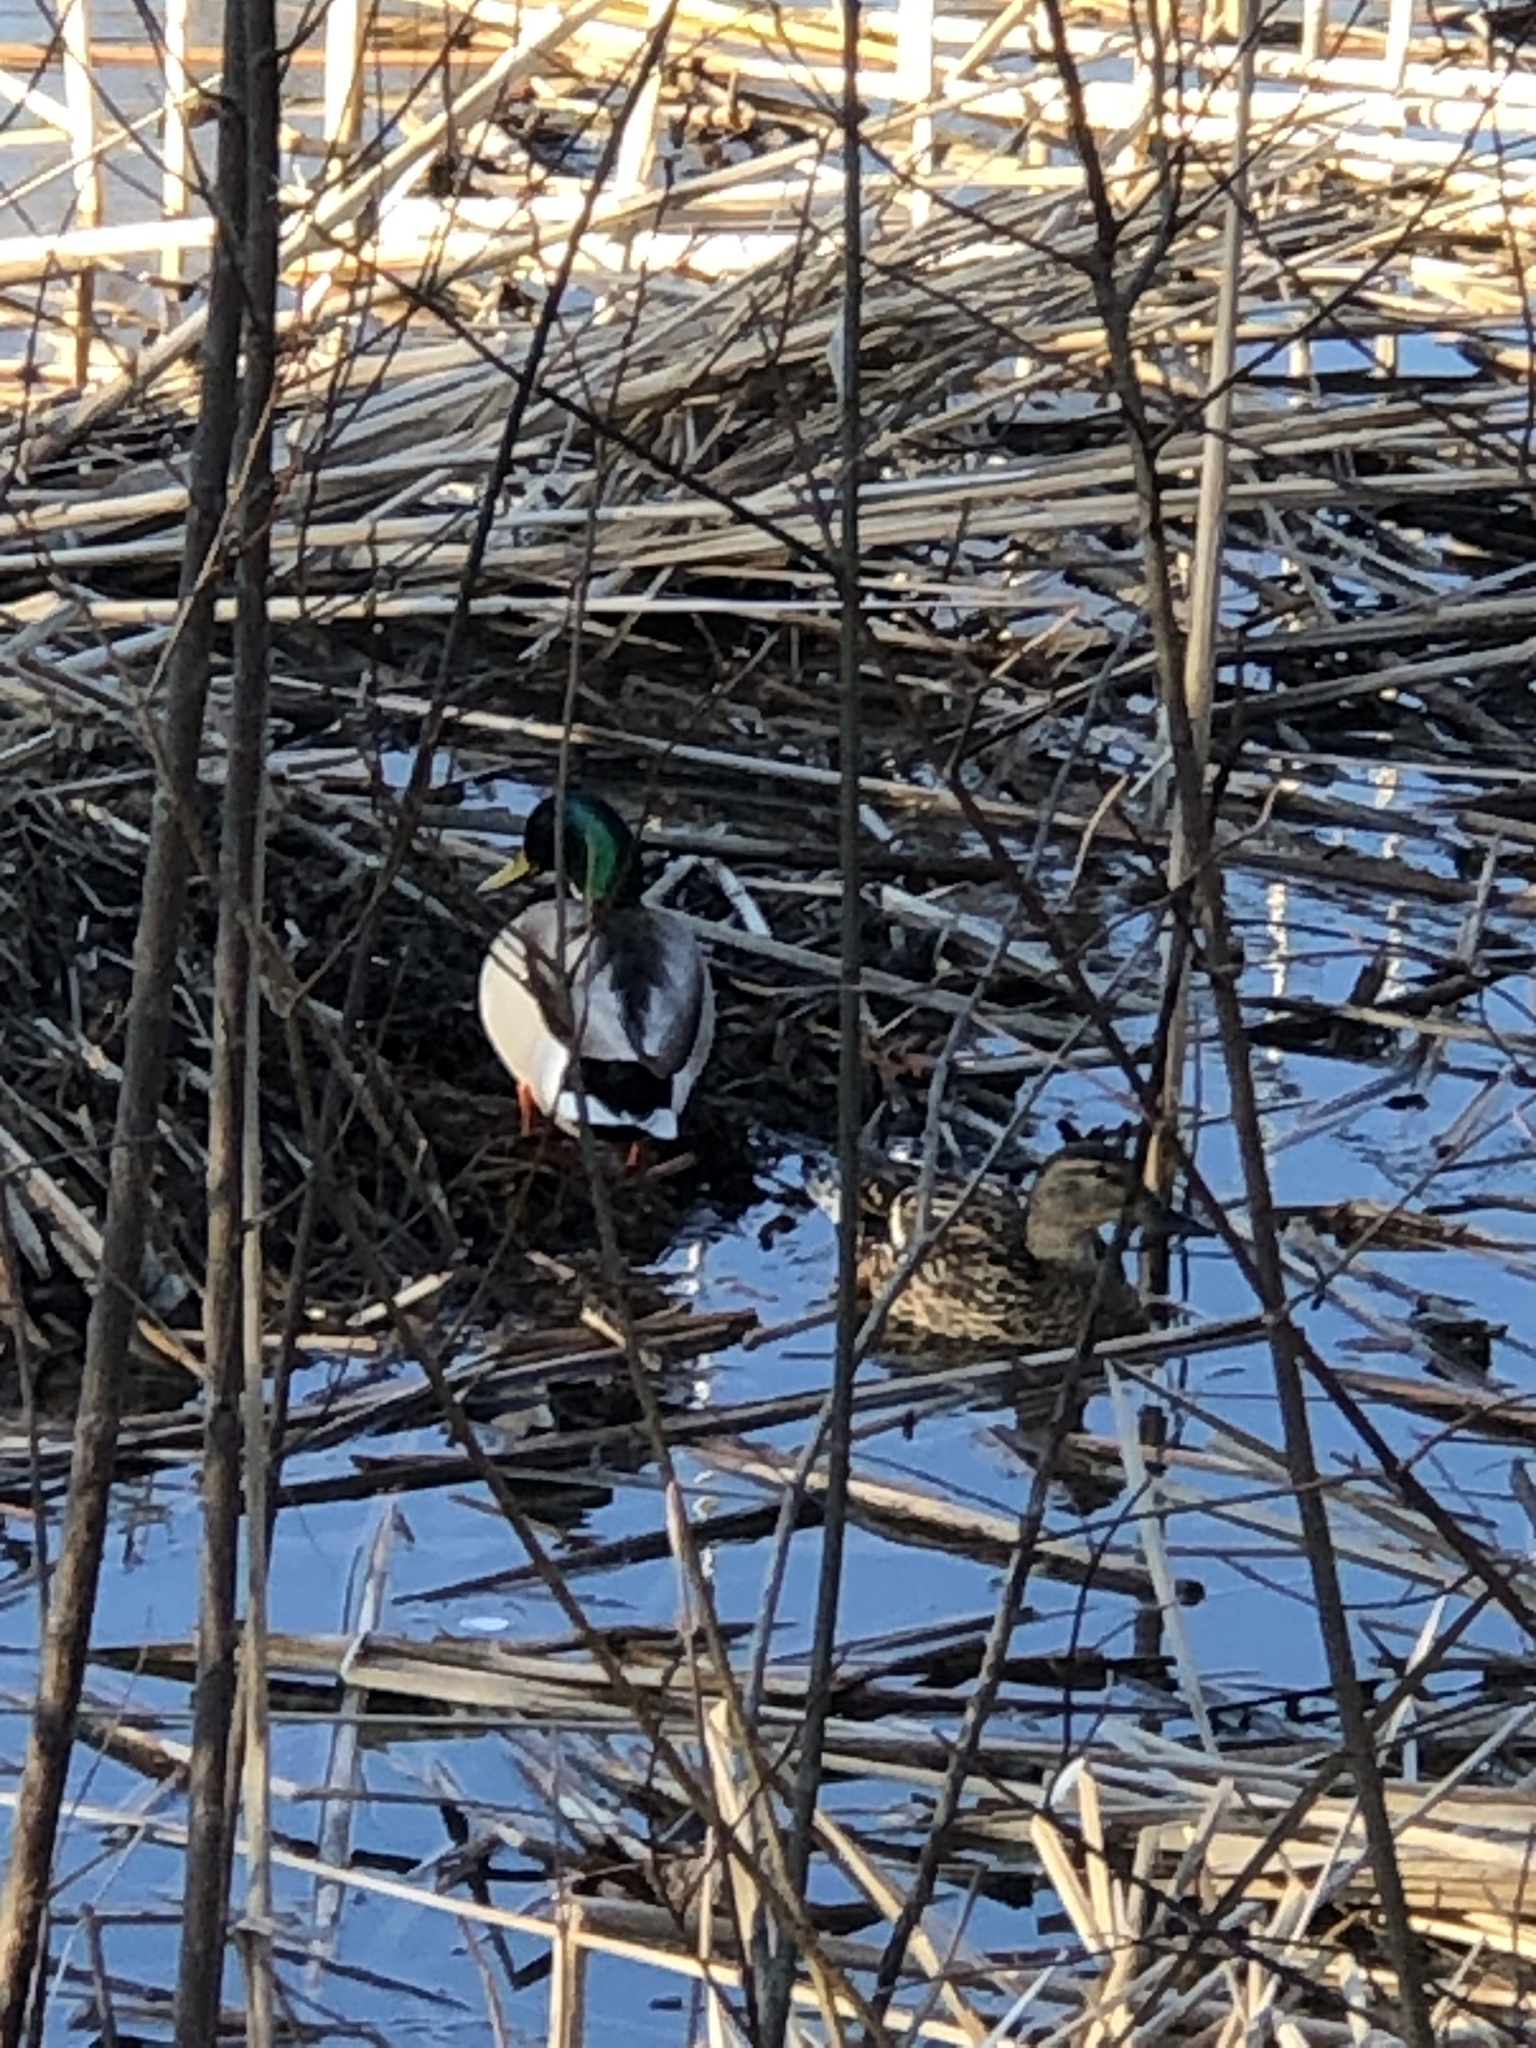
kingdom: Animalia
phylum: Chordata
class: Aves
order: Anseriformes
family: Anatidae
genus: Anas
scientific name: Anas platyrhynchos
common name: Mallard
